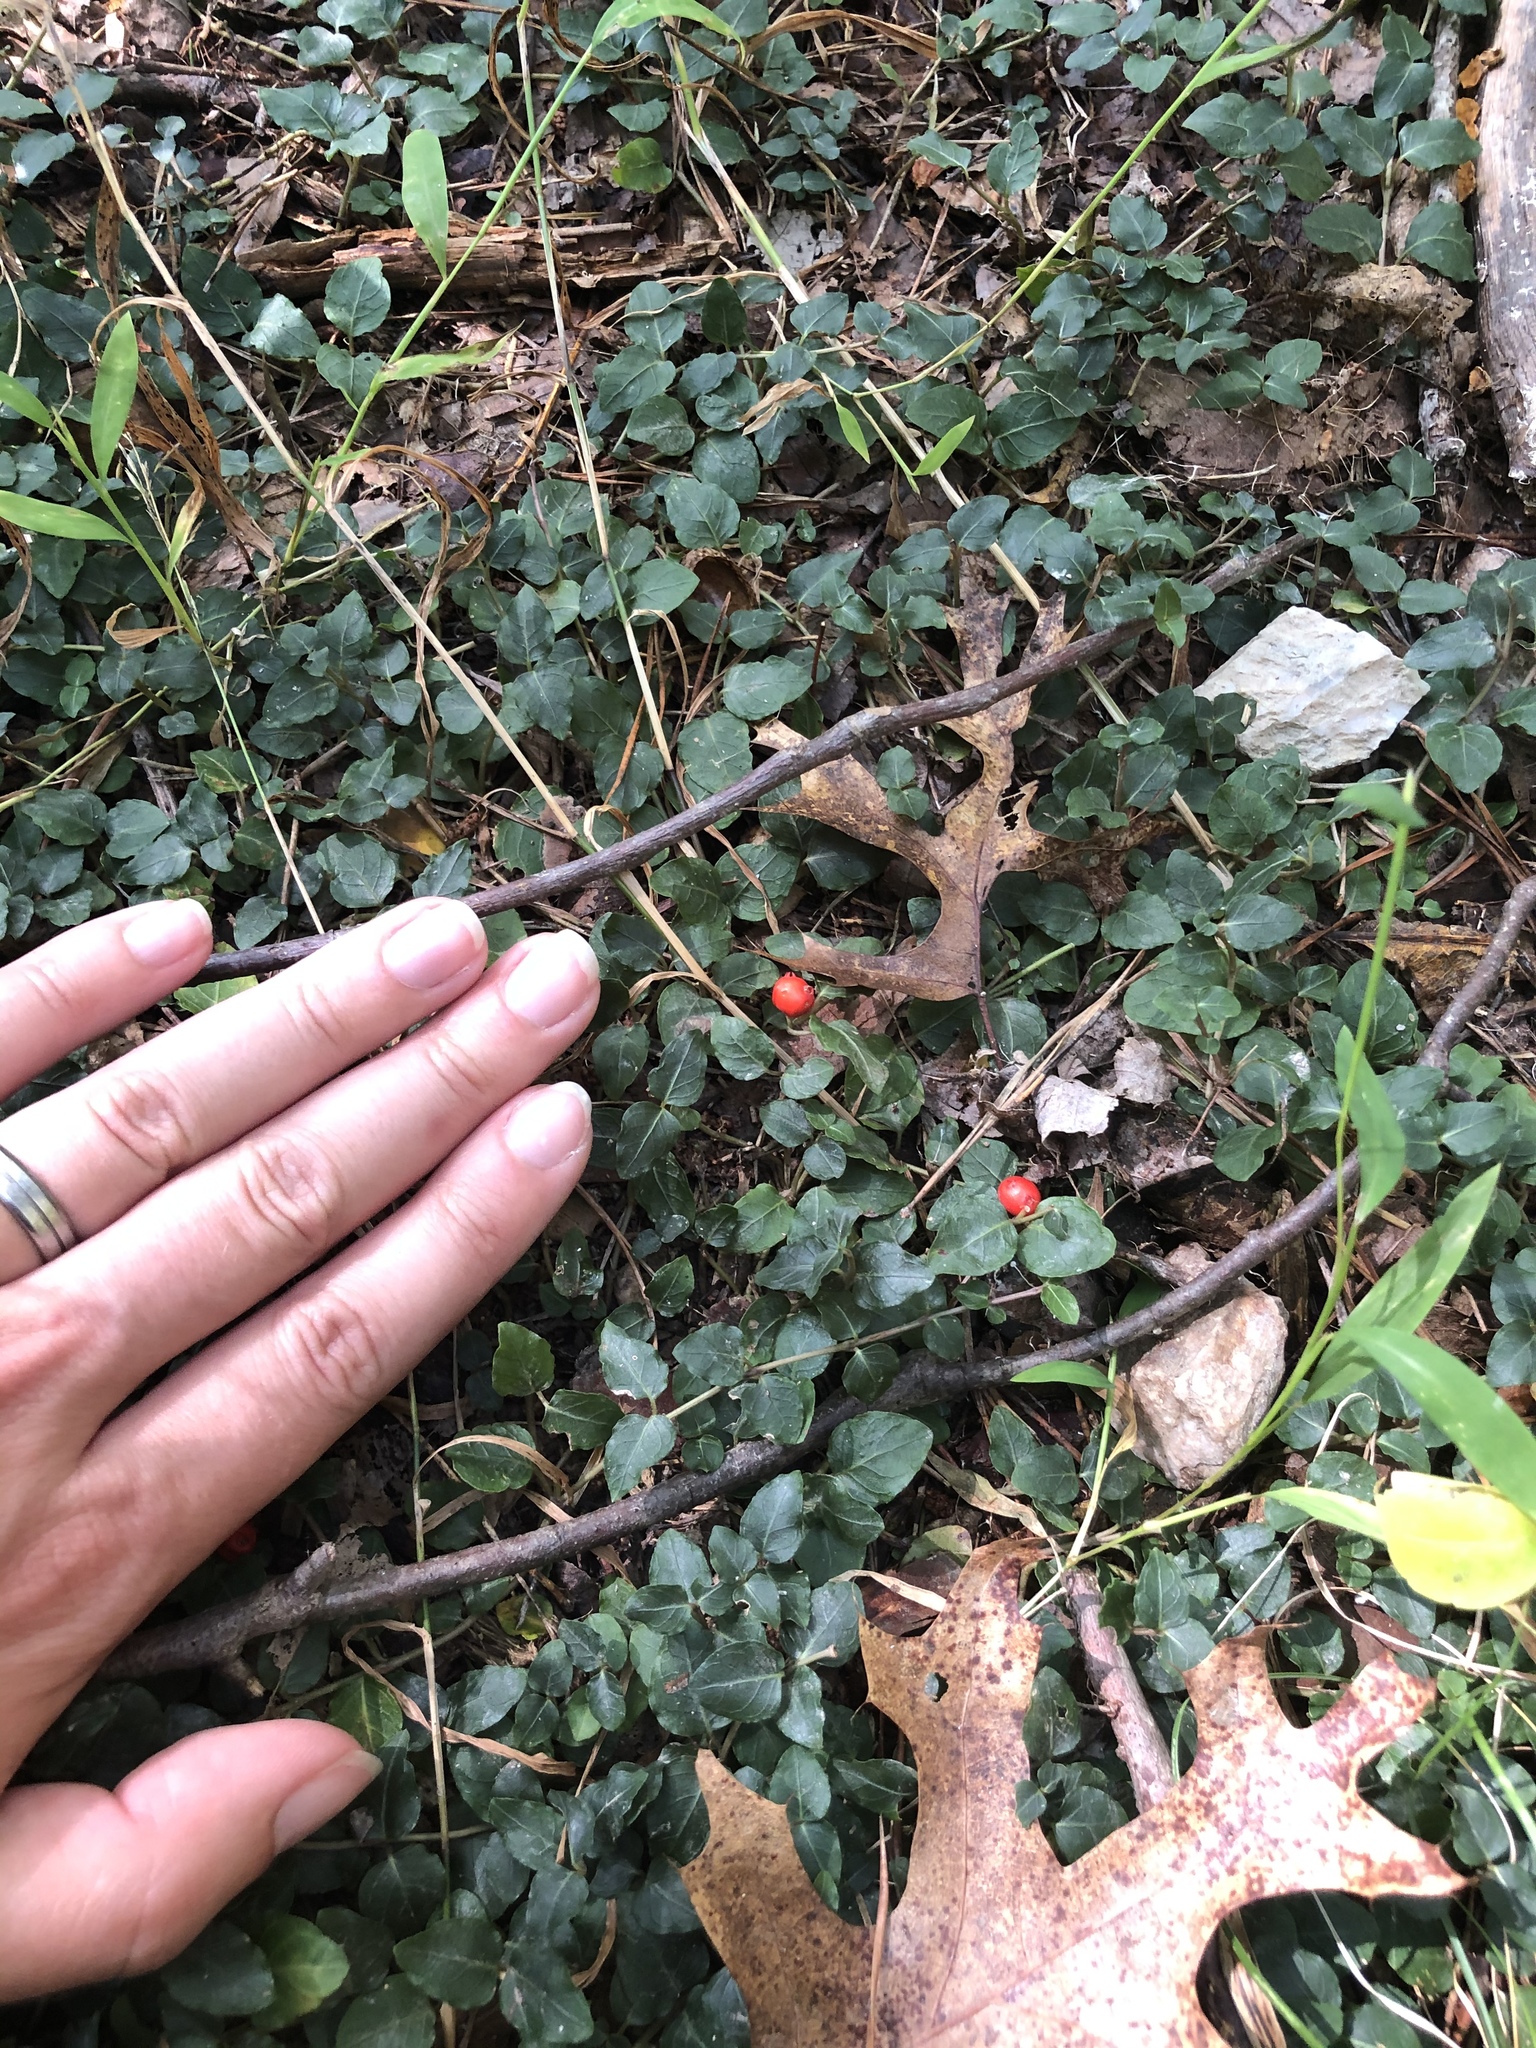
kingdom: Plantae
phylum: Tracheophyta
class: Magnoliopsida
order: Gentianales
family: Rubiaceae
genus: Mitchella
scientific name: Mitchella repens
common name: Partridge-berry
